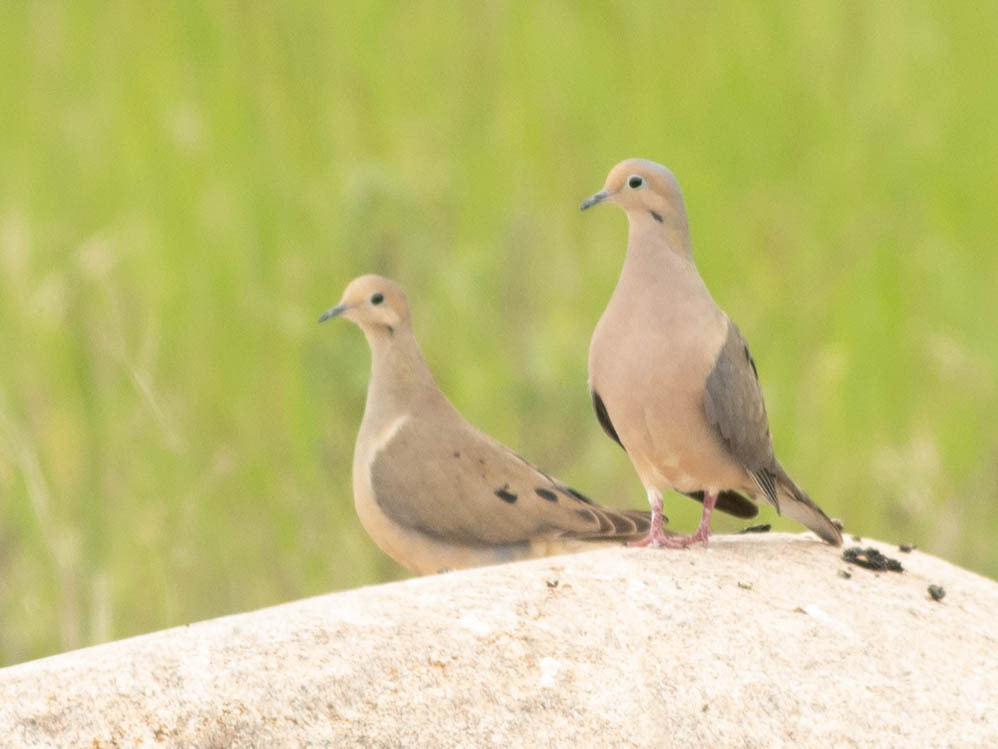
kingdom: Animalia
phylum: Chordata
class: Aves
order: Columbiformes
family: Columbidae
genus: Zenaida
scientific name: Zenaida macroura
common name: Mourning dove
